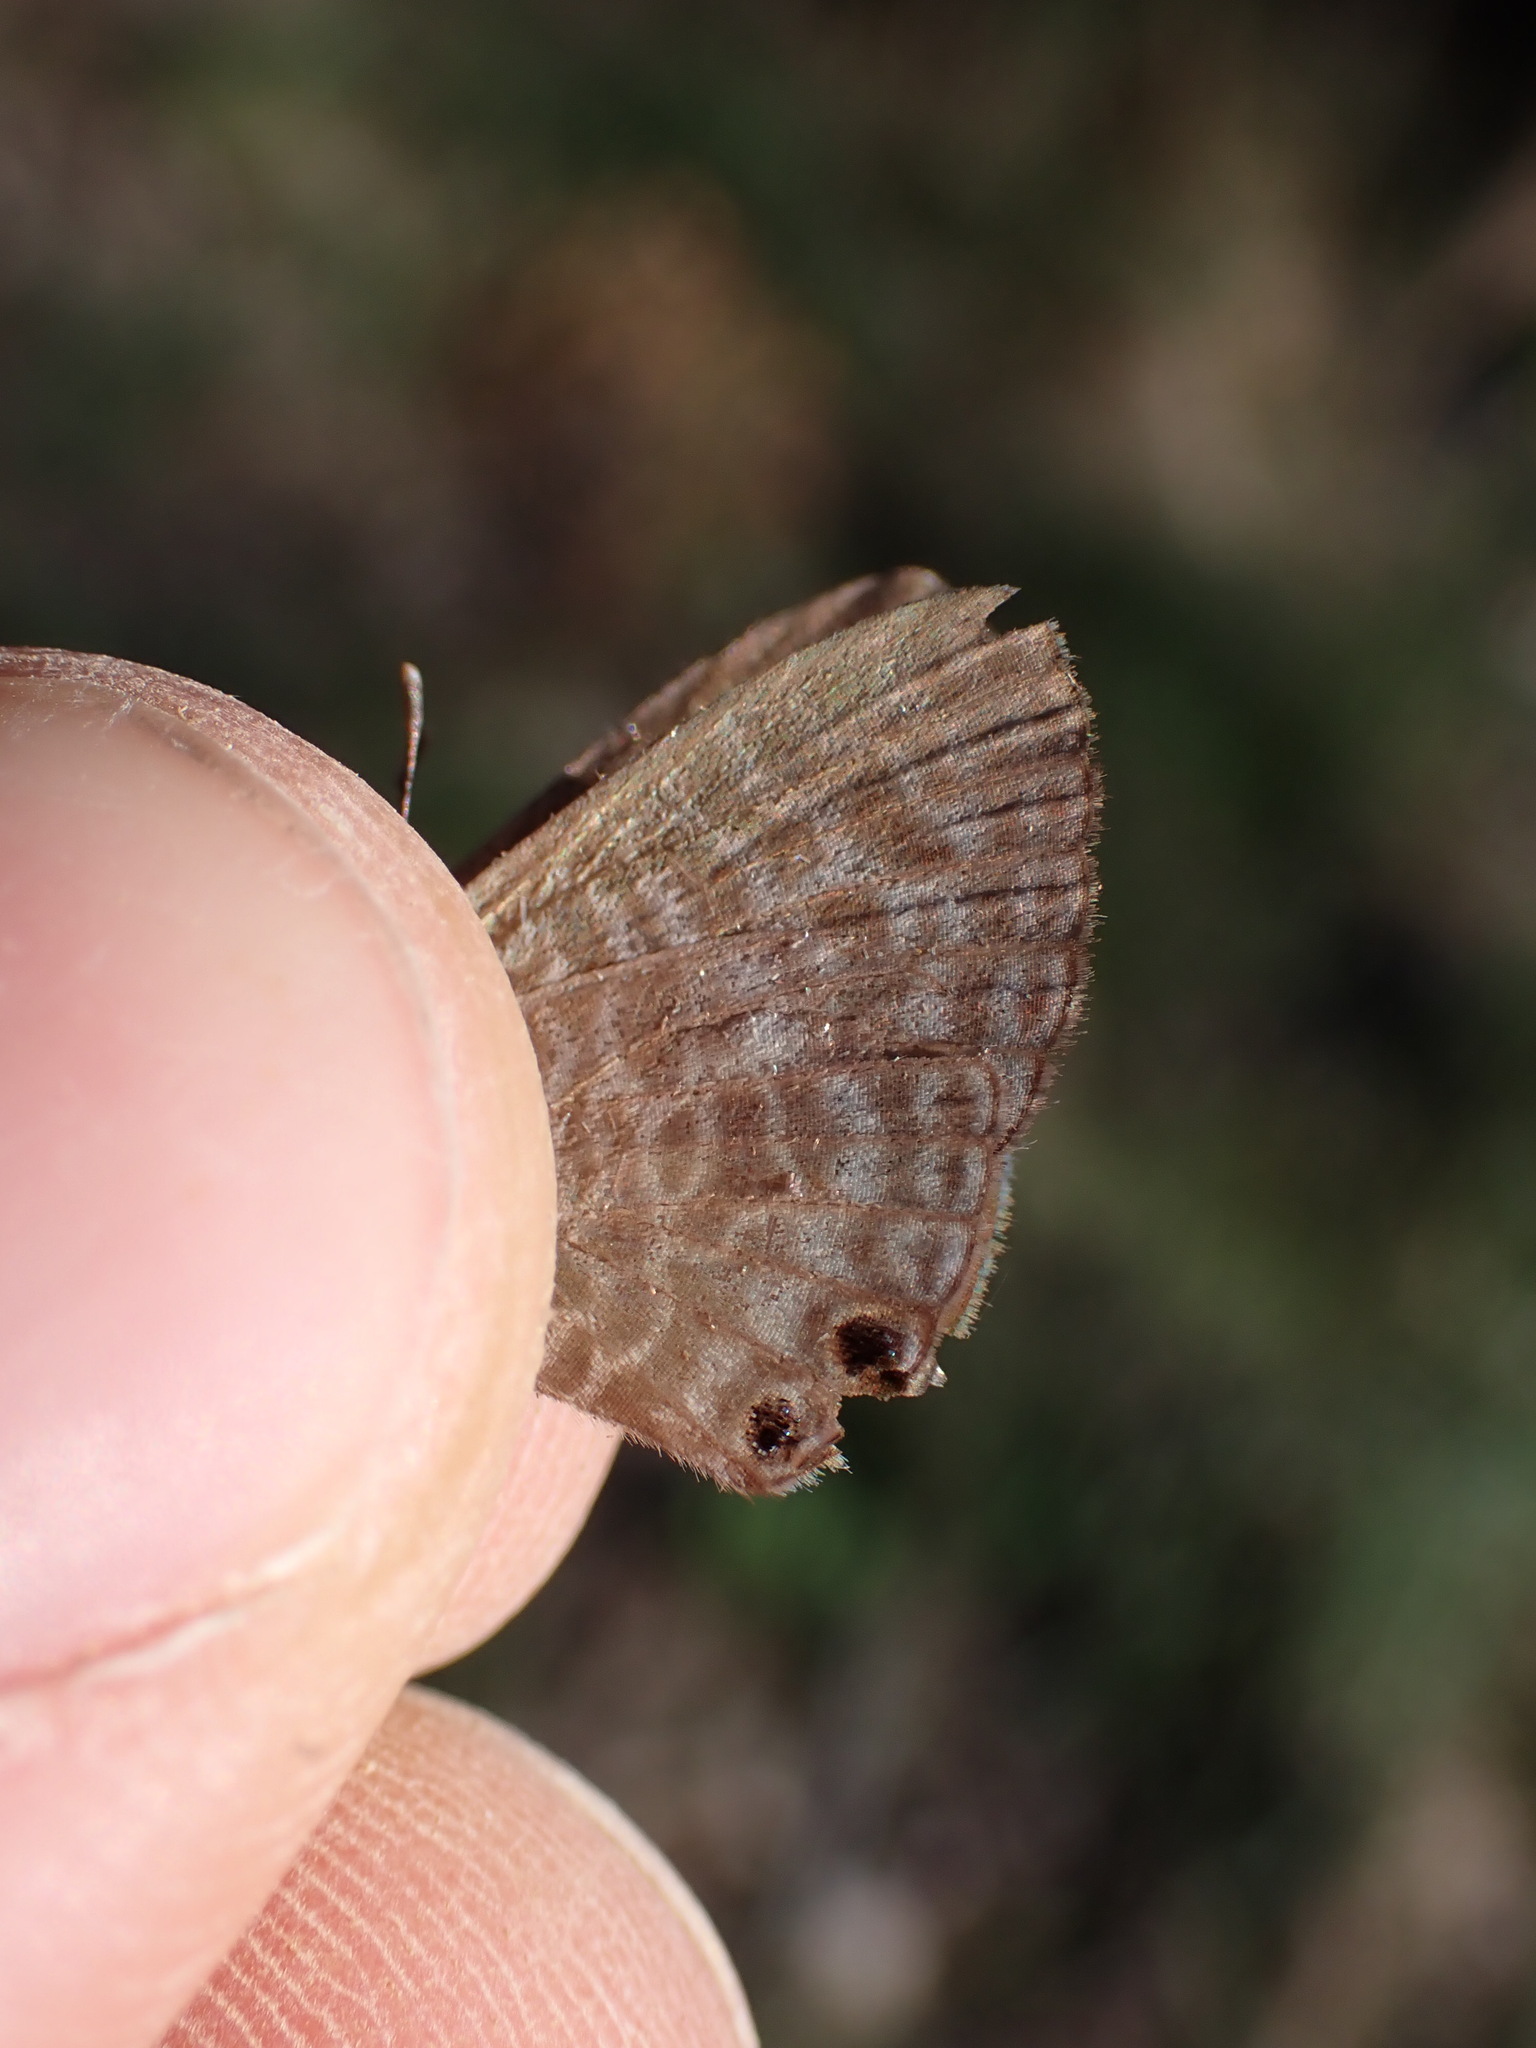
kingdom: Animalia
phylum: Arthropoda
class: Insecta
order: Lepidoptera
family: Lycaenidae
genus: Leptotes
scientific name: Leptotes pirithous
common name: Lang's short-tailed blue
